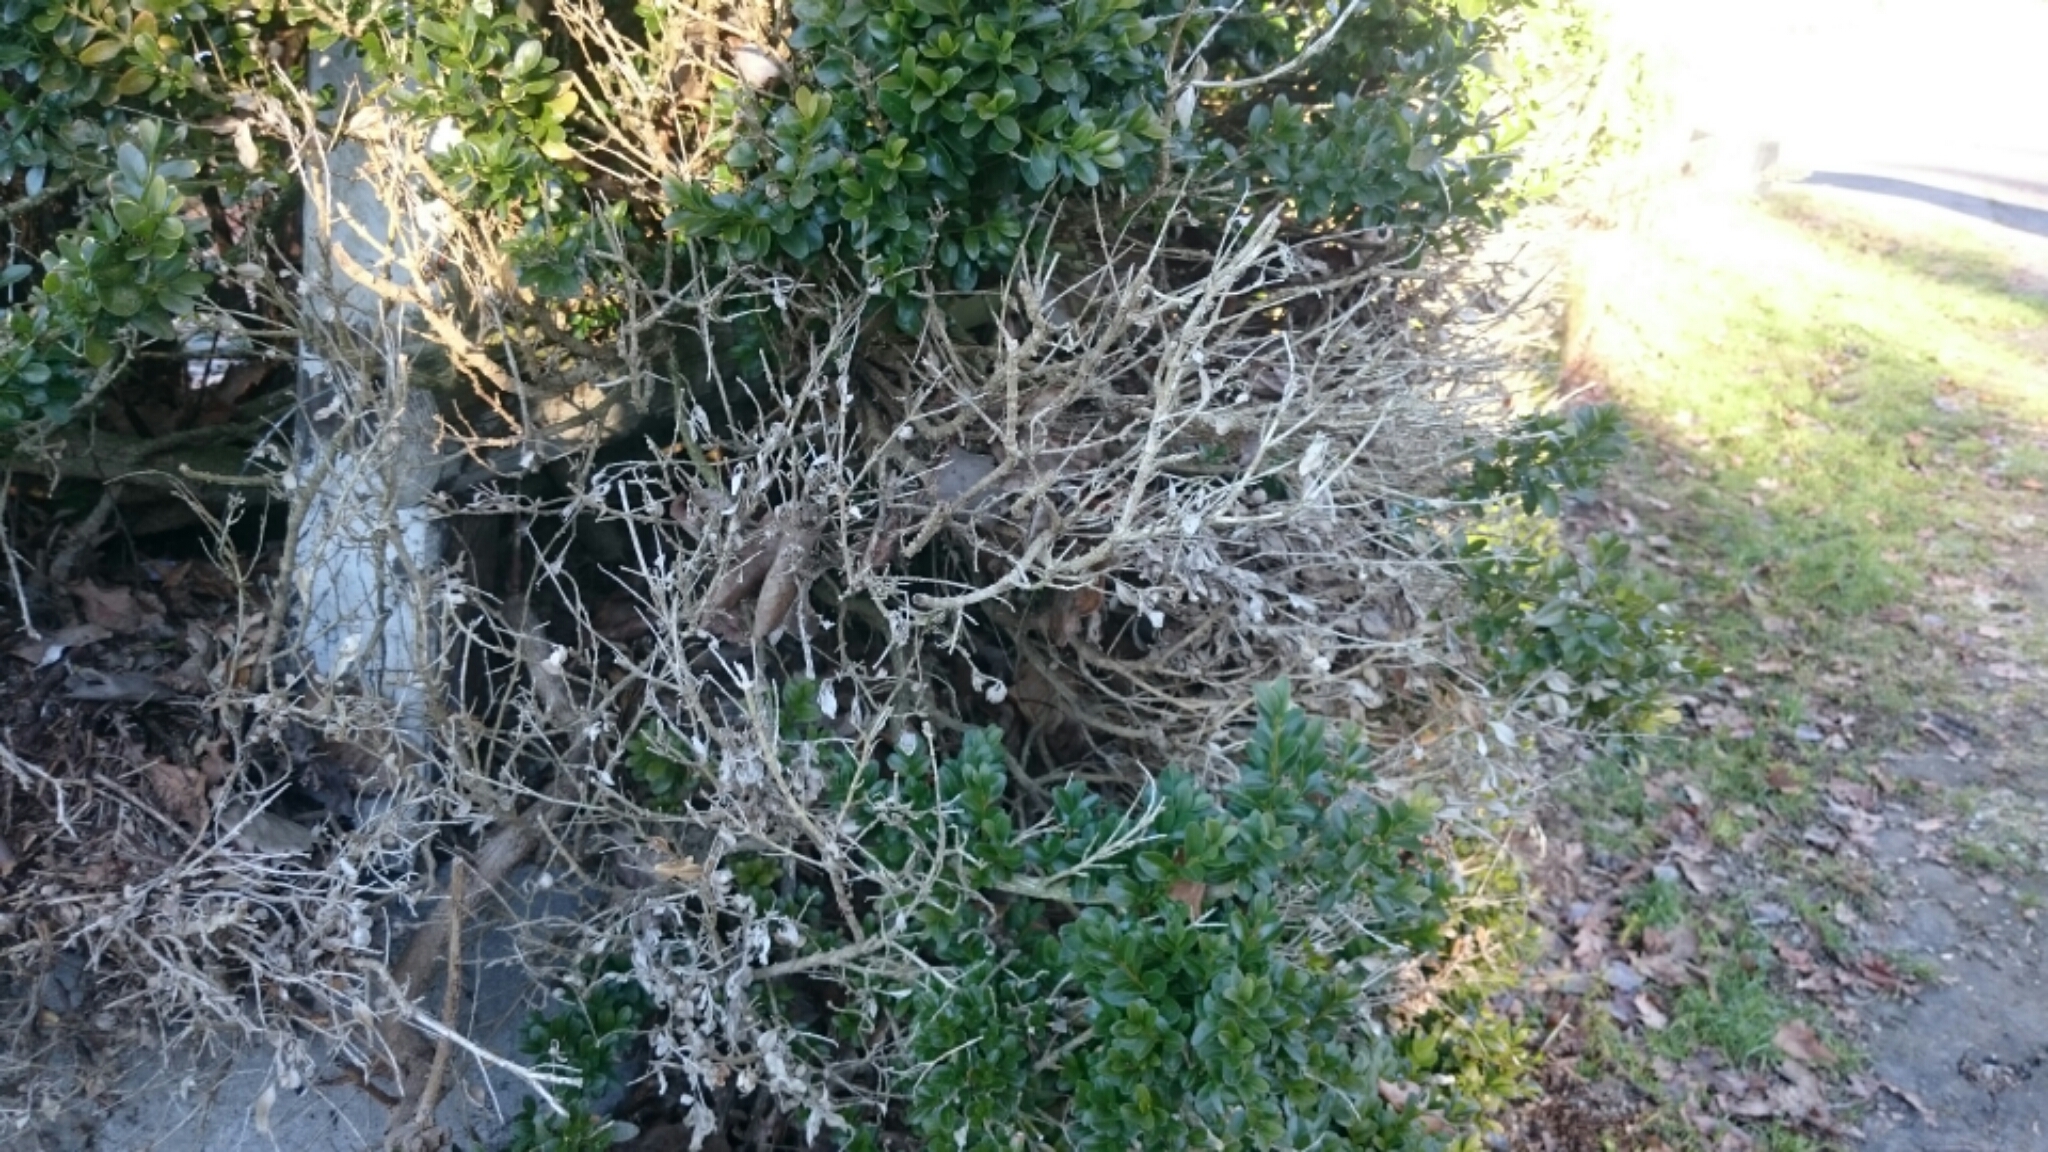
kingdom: Animalia
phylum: Arthropoda
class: Insecta
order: Lepidoptera
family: Crambidae
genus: Cydalima
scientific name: Cydalima perspectalis
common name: Box tree moth
